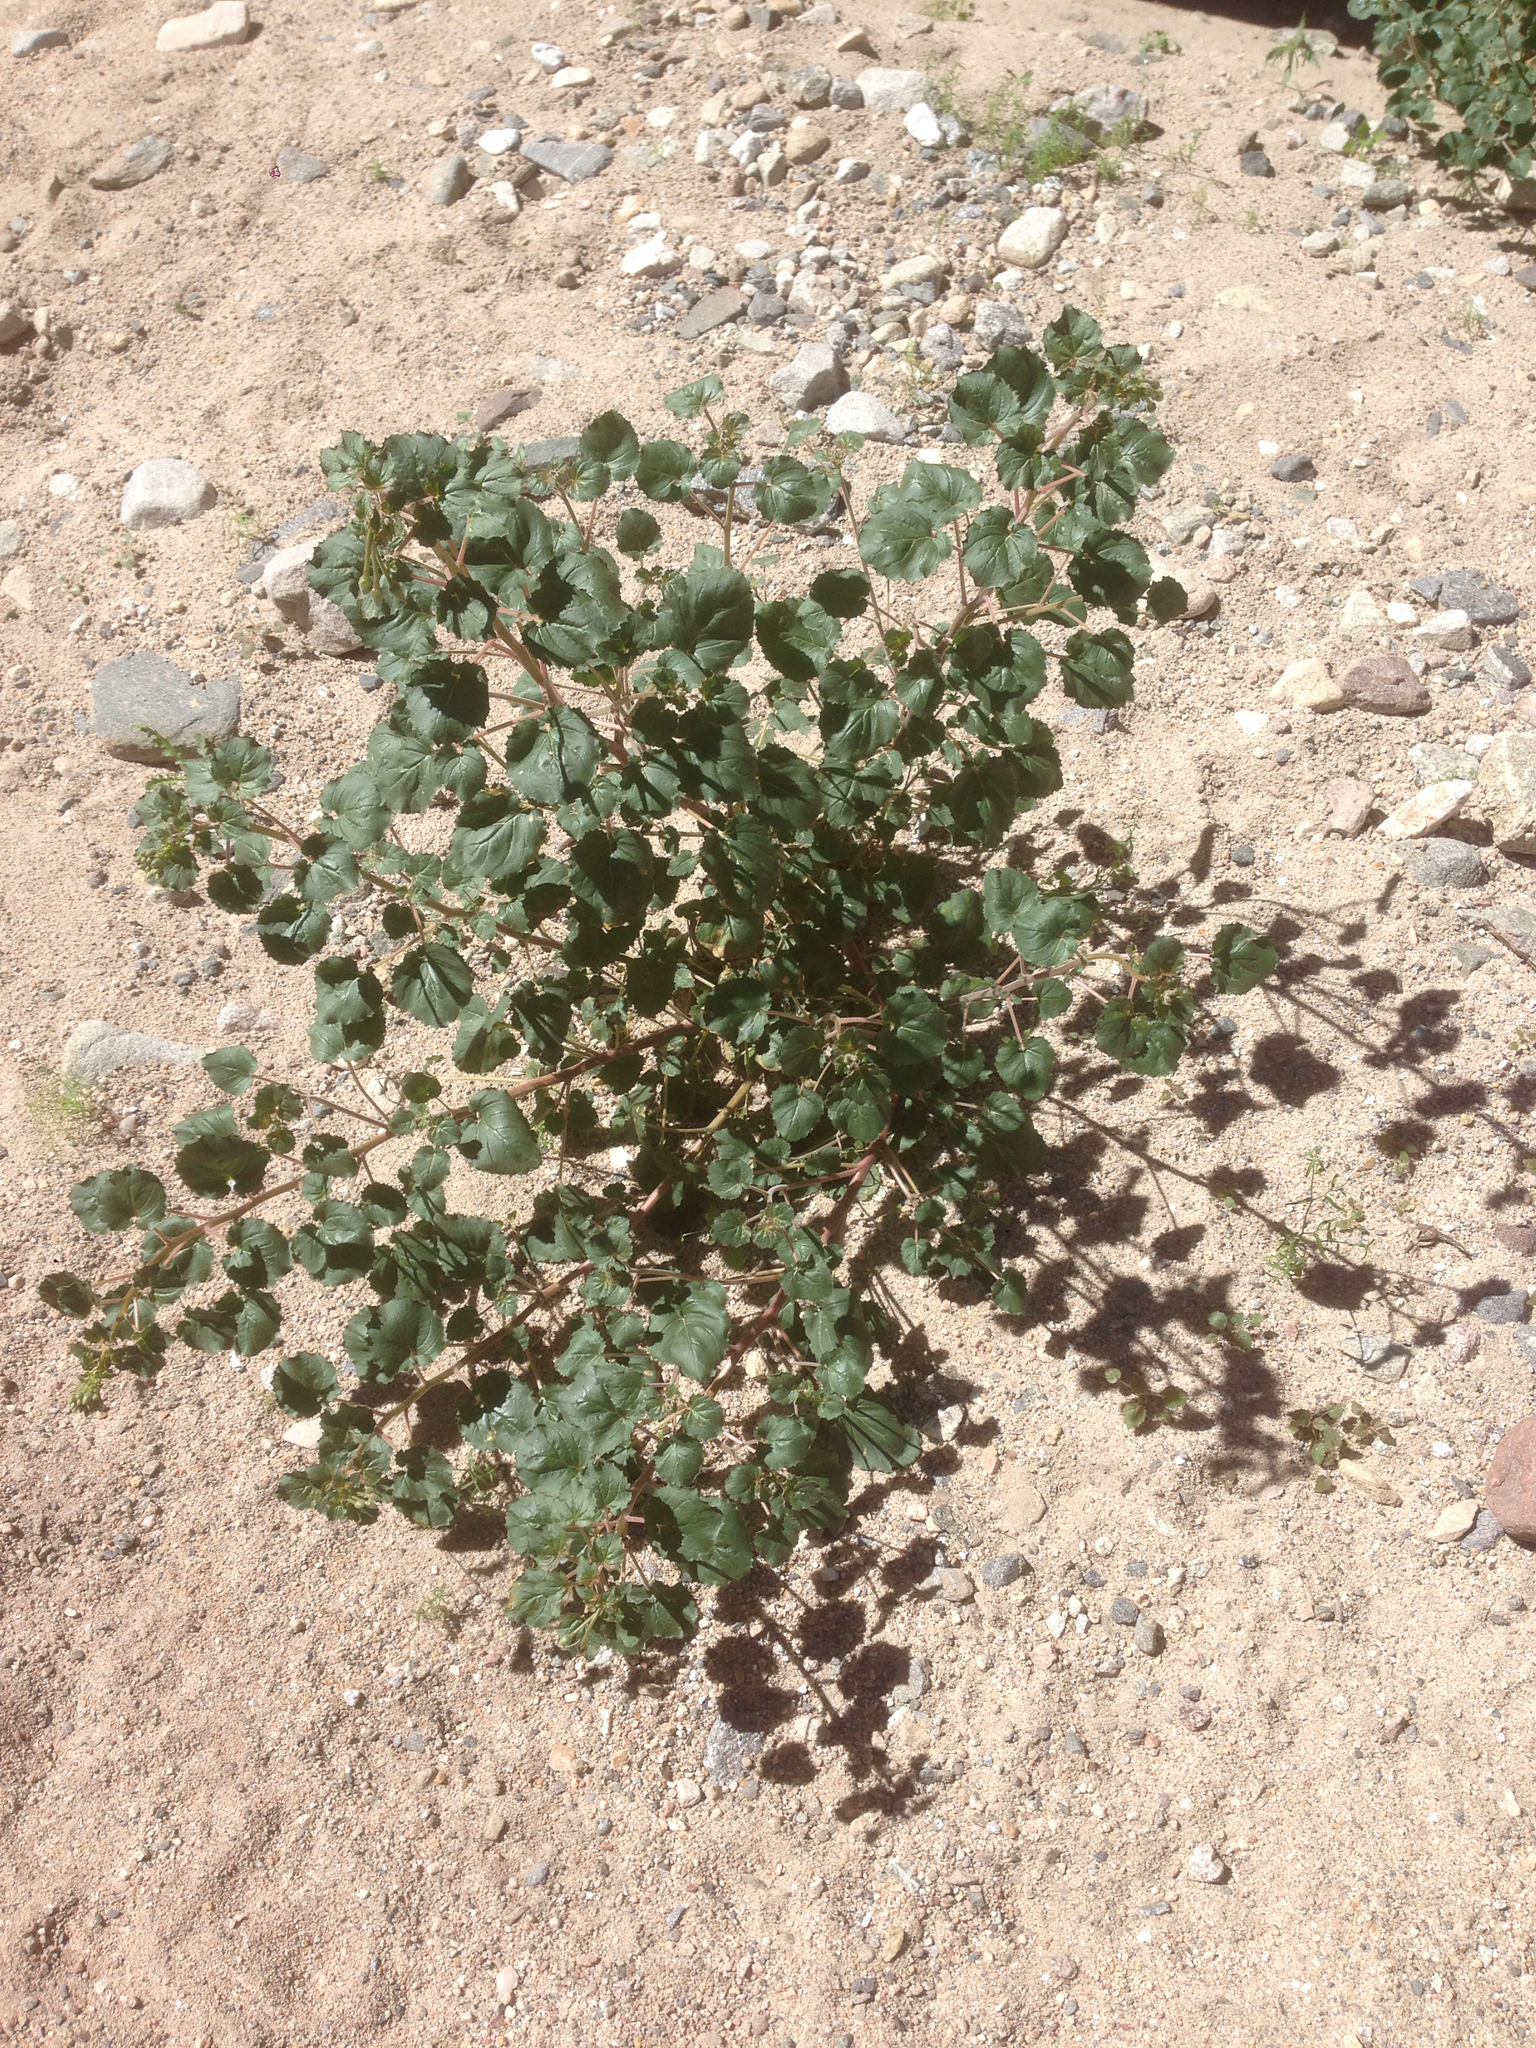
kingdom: Plantae
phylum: Tracheophyta
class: Magnoliopsida
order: Myrtales
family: Onagraceae
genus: Chylismia
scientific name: Chylismia cardiophylla
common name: Heartleaf suncup
